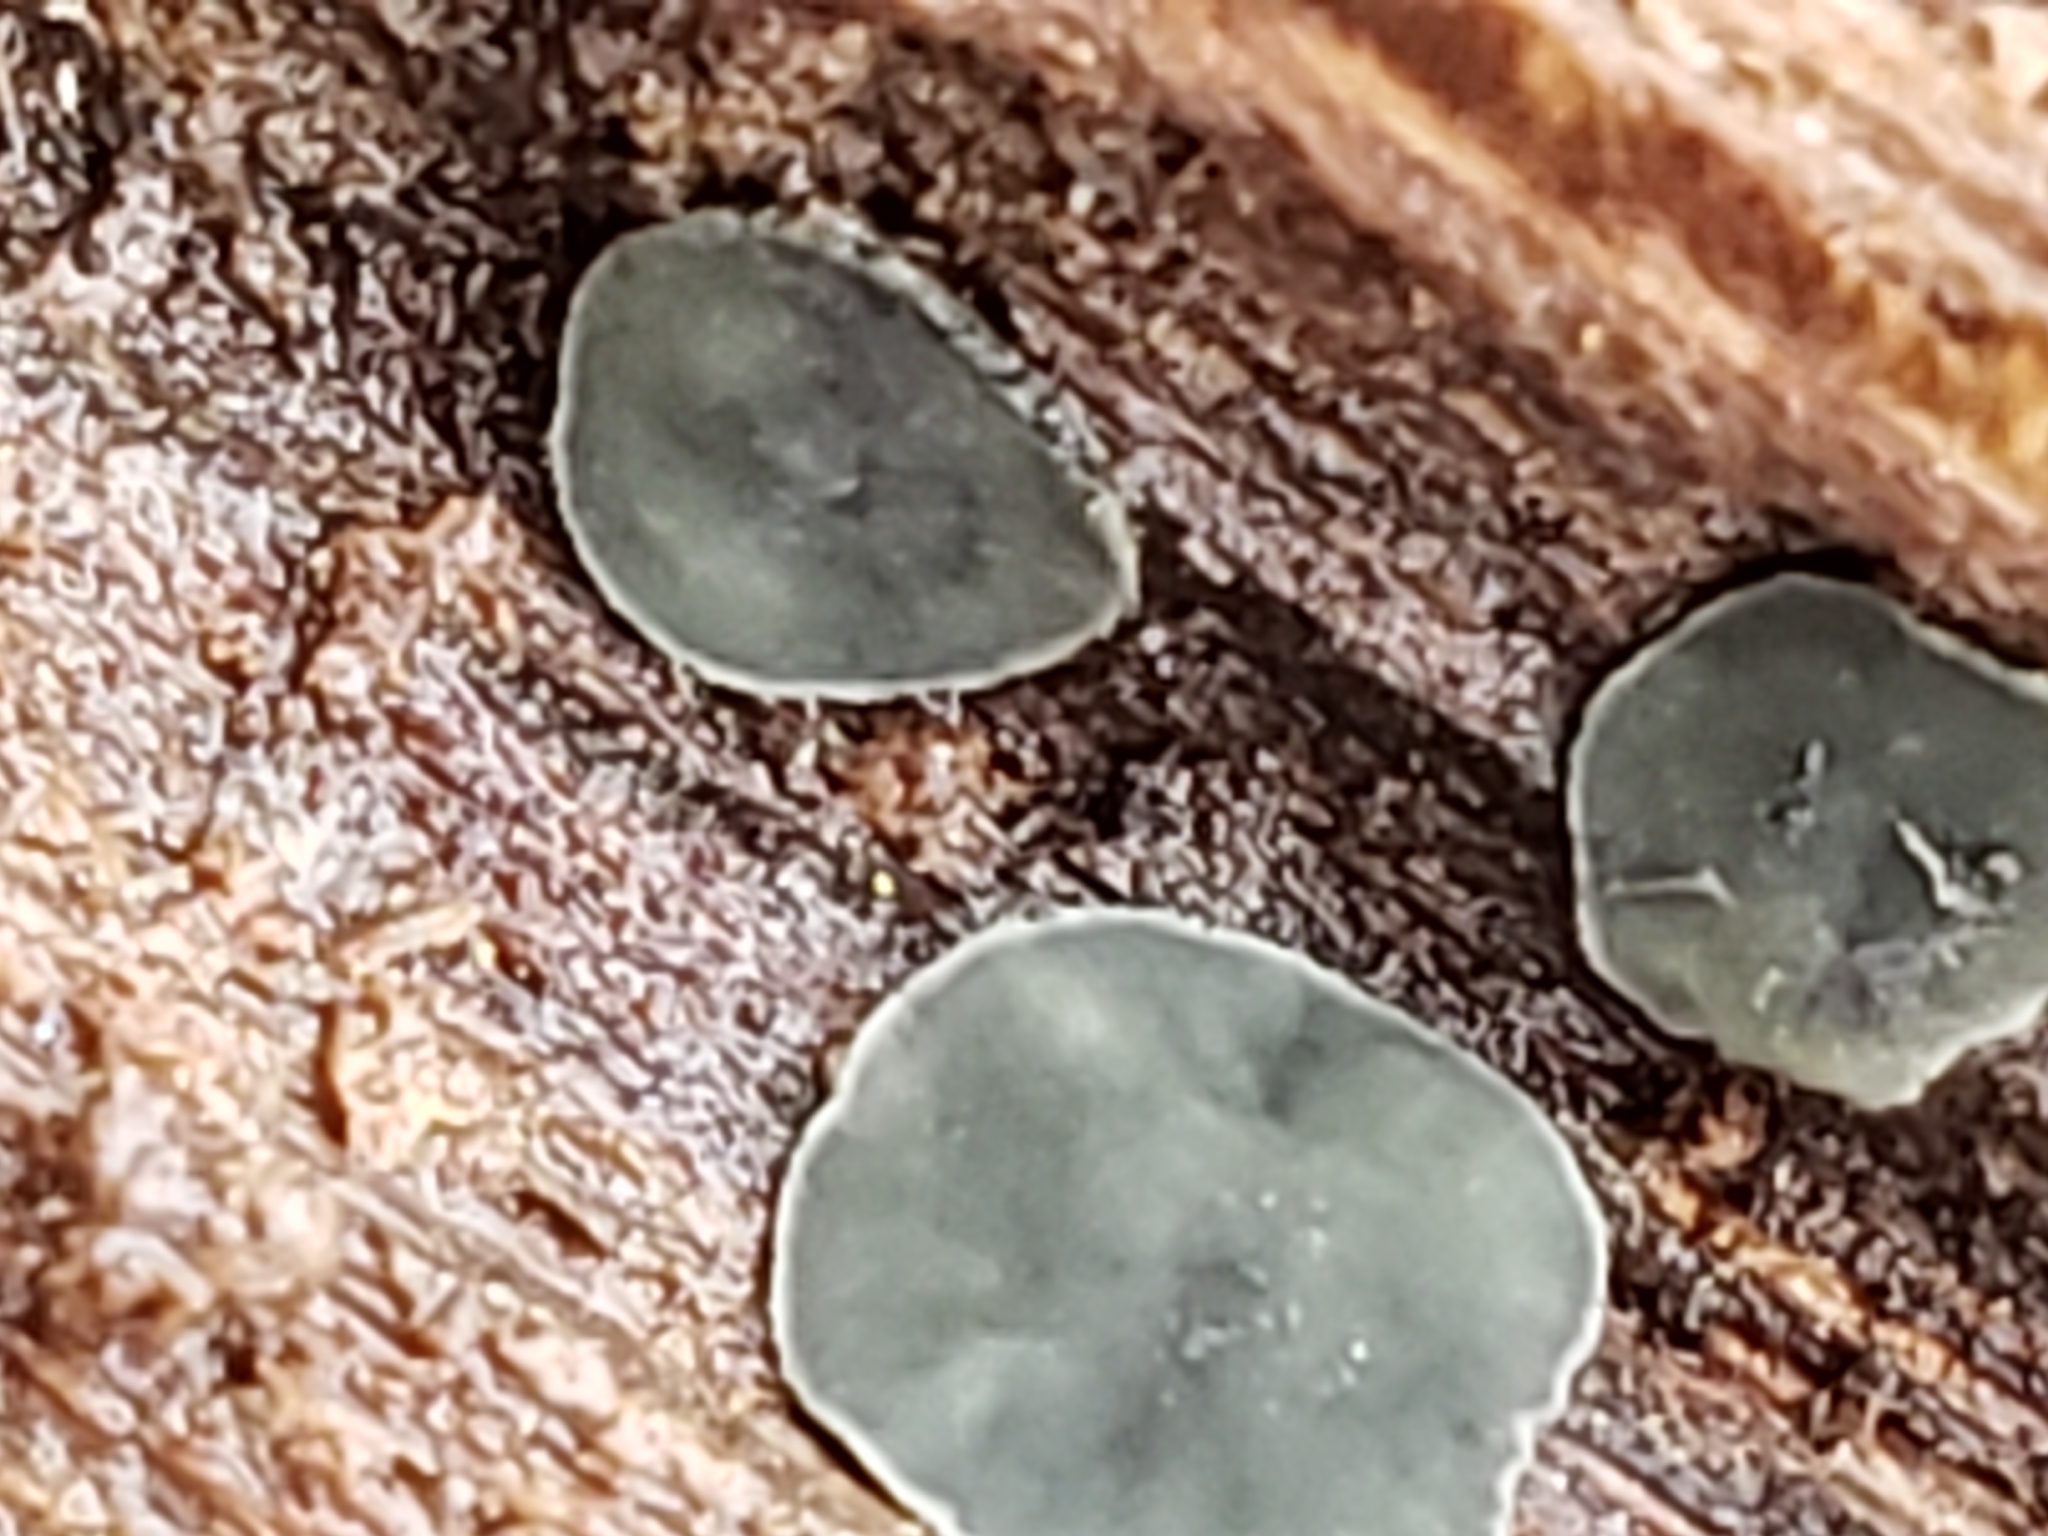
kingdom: Fungi
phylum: Ascomycota
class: Leotiomycetes
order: Helotiales
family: Chlorospleniaceae
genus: Chlorosplenium
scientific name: Chlorosplenium chlora
